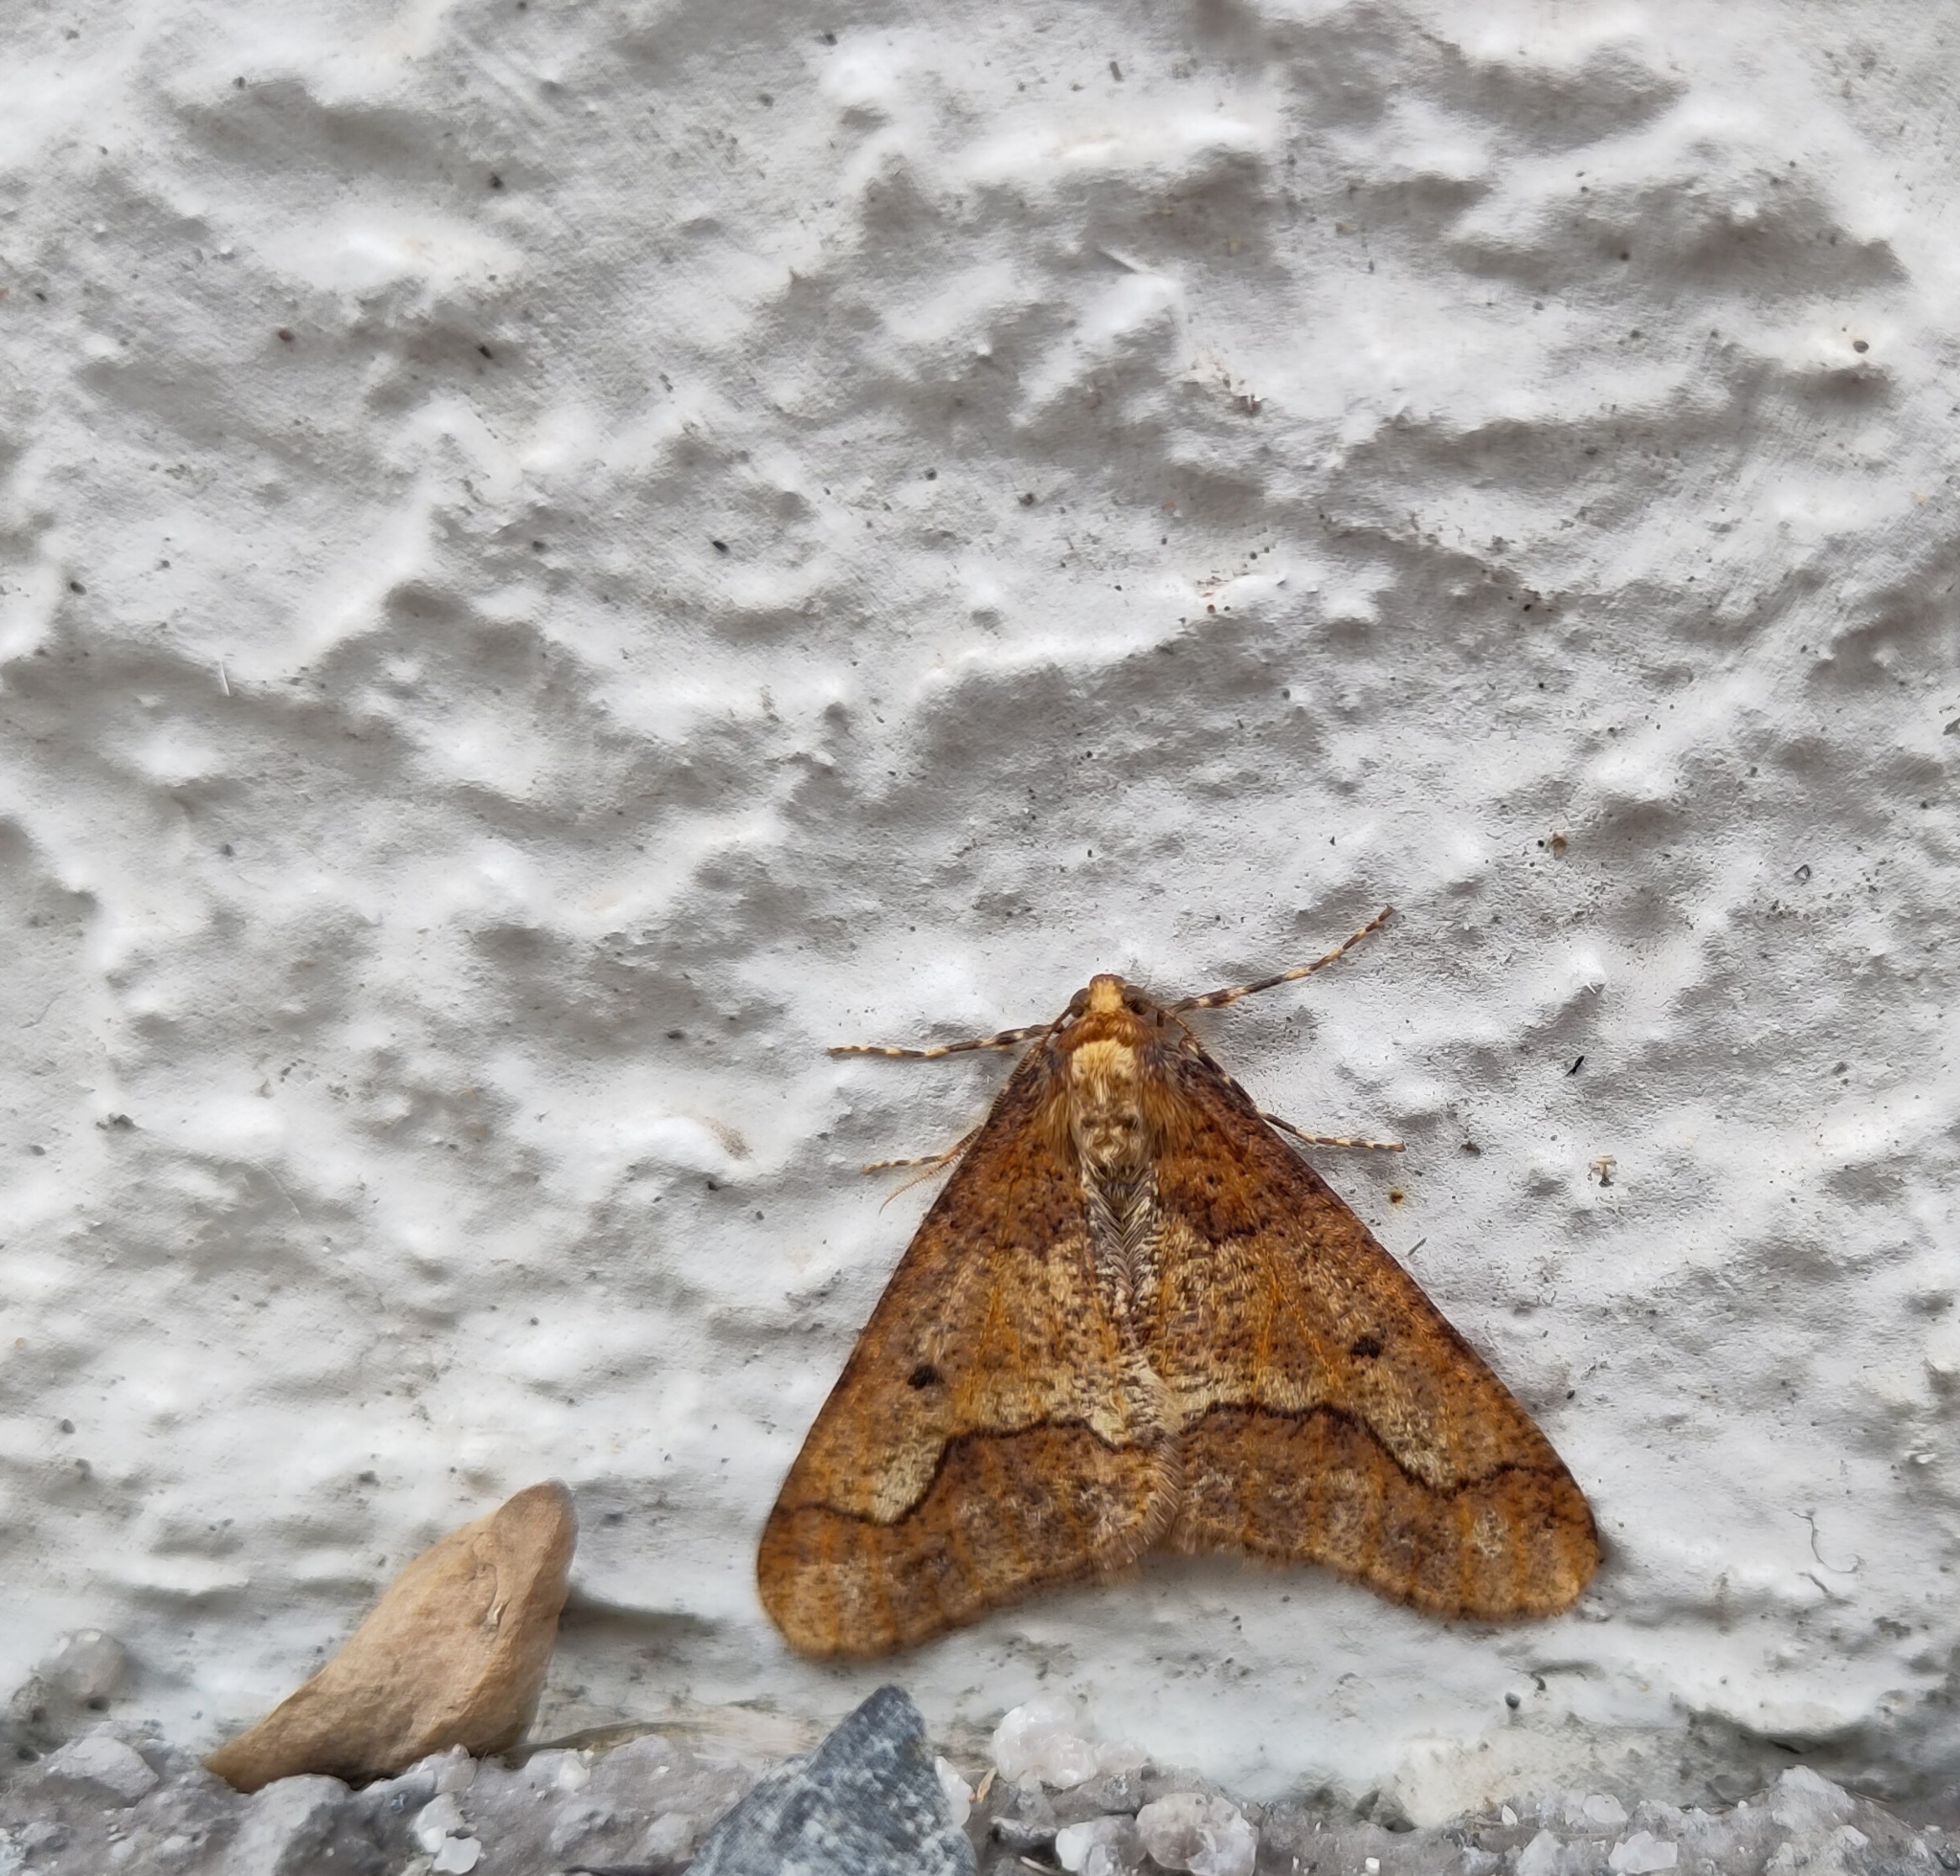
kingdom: Animalia
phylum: Arthropoda
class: Insecta
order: Lepidoptera
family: Geometridae
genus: Erannis
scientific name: Erannis defoliaria
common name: Mottled umber
